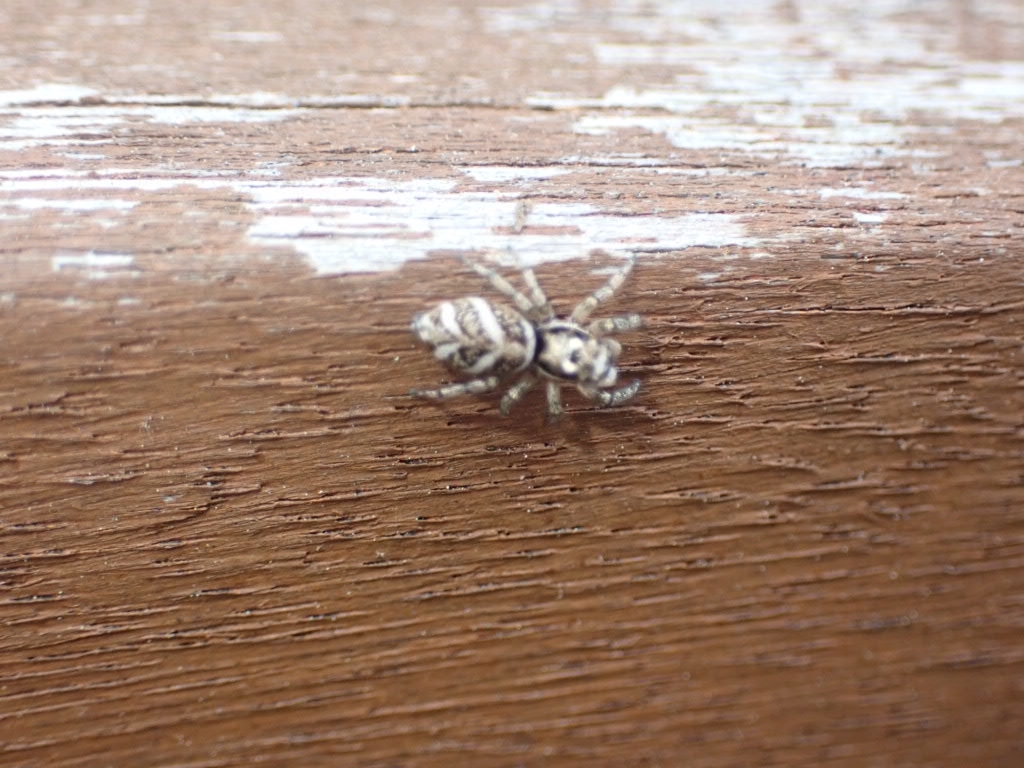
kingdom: Animalia
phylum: Arthropoda
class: Arachnida
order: Araneae
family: Salticidae
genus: Salticus
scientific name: Salticus scenicus
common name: Zebra jumper
